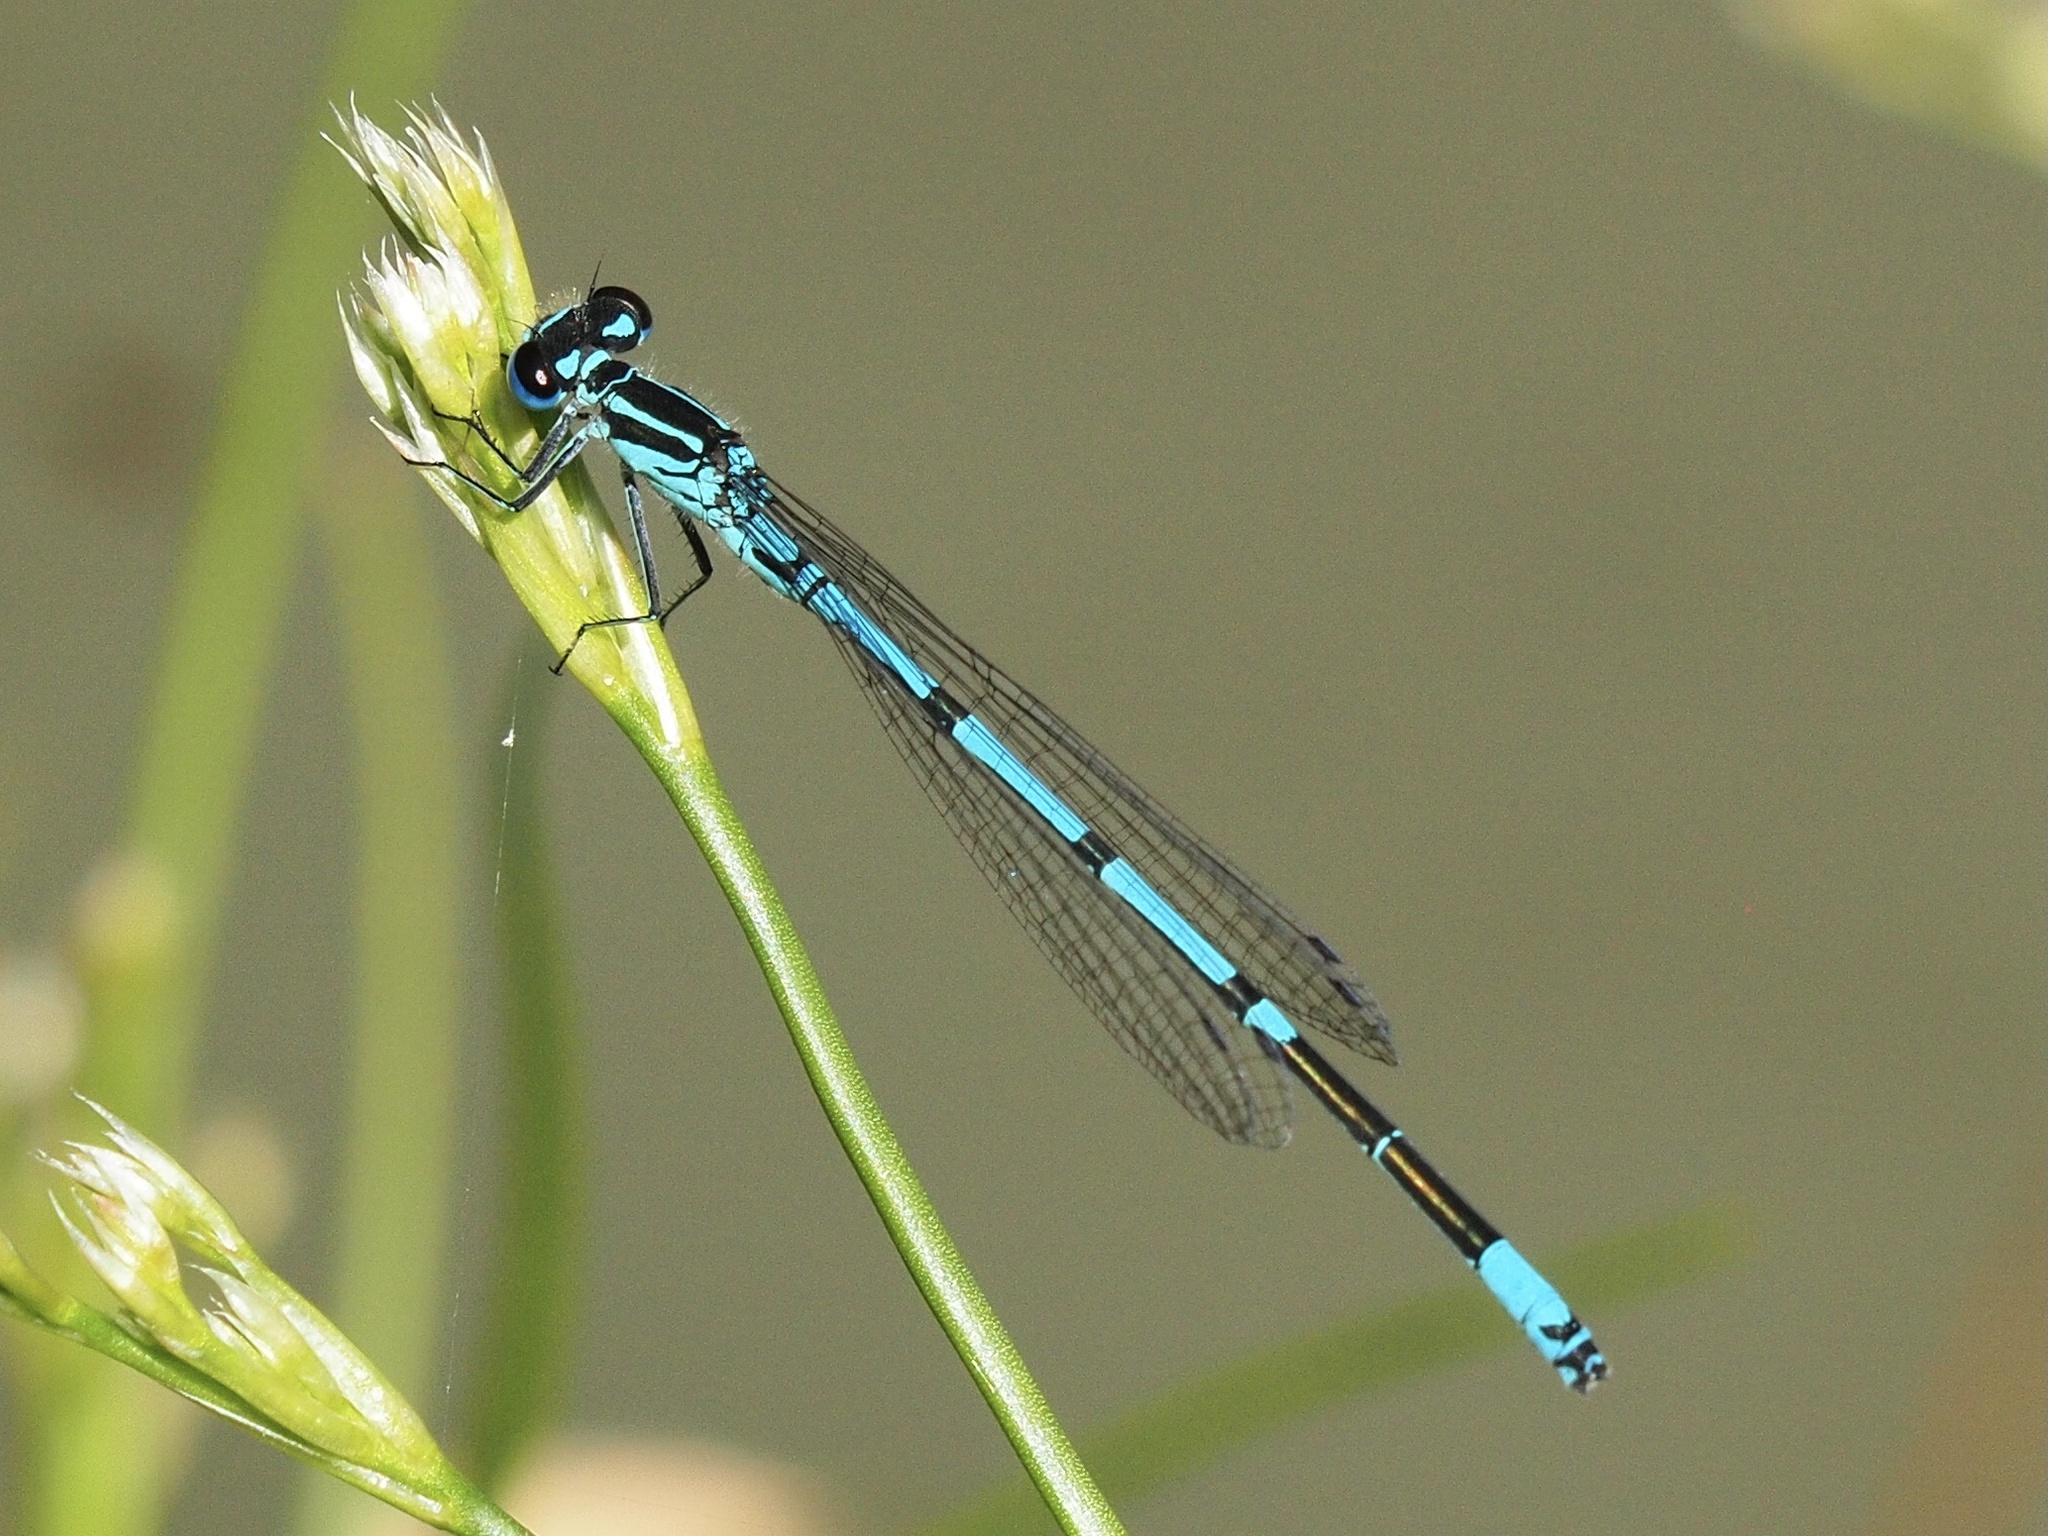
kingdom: Animalia
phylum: Arthropoda
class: Insecta
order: Odonata
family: Coenagrionidae
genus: Coenagrion
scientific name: Coenagrion puella
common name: Azure damselfly
